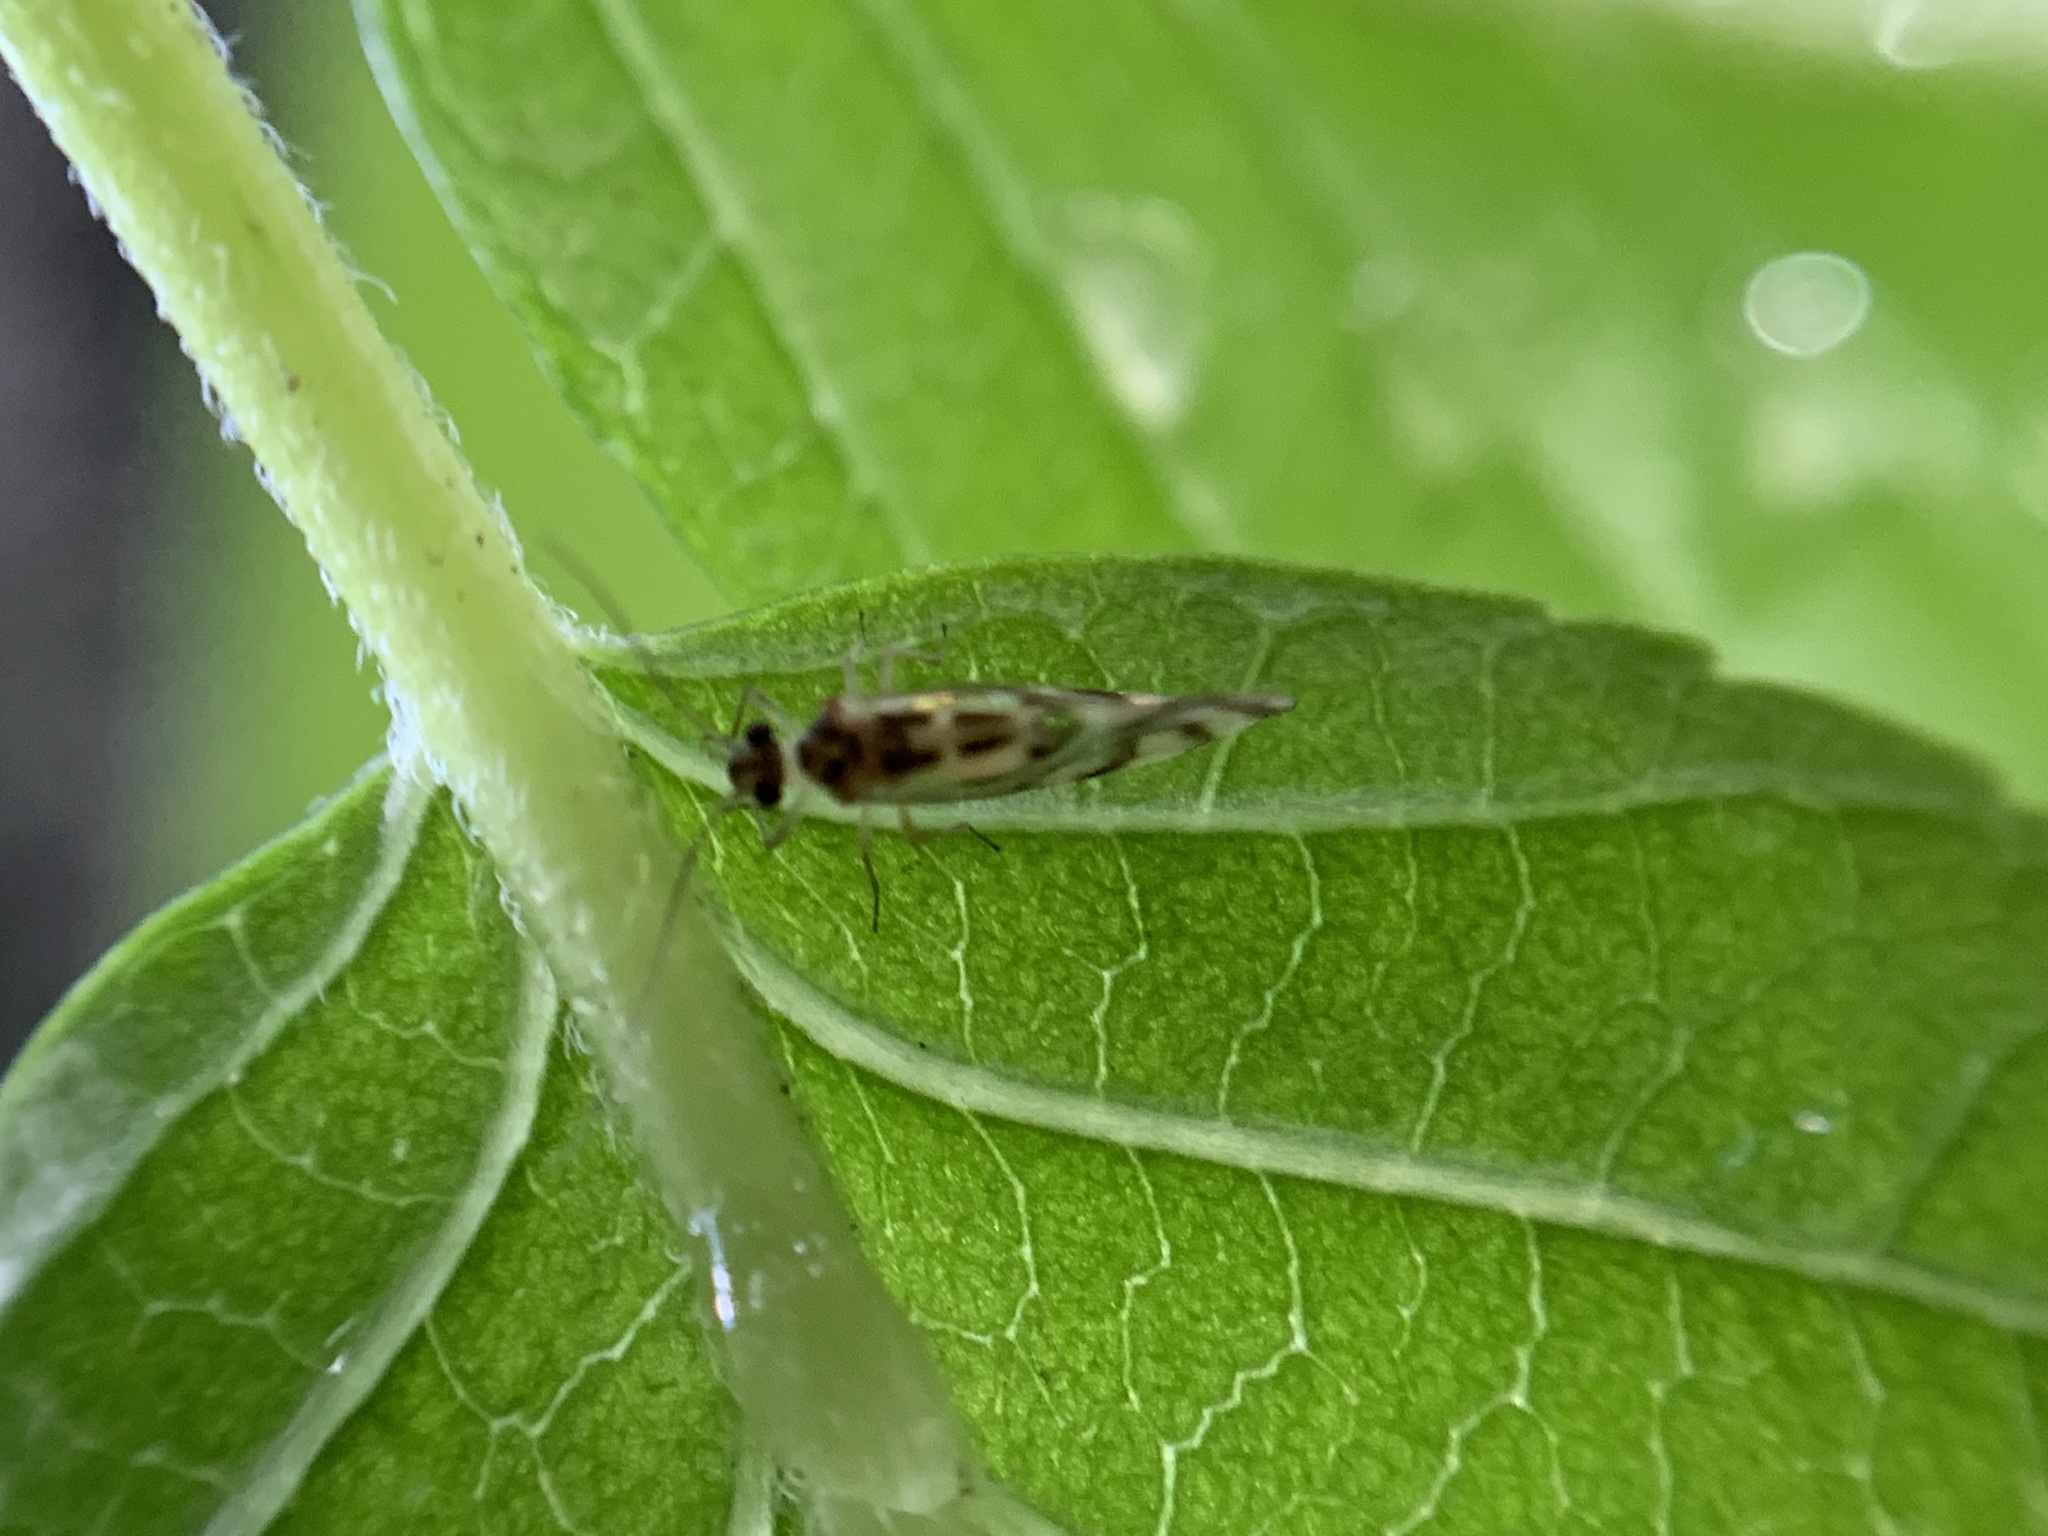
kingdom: Animalia
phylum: Arthropoda
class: Insecta
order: Psocodea
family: Stenopsocidae
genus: Graphopsocus
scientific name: Graphopsocus cruciatus
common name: Lizard bark louse
